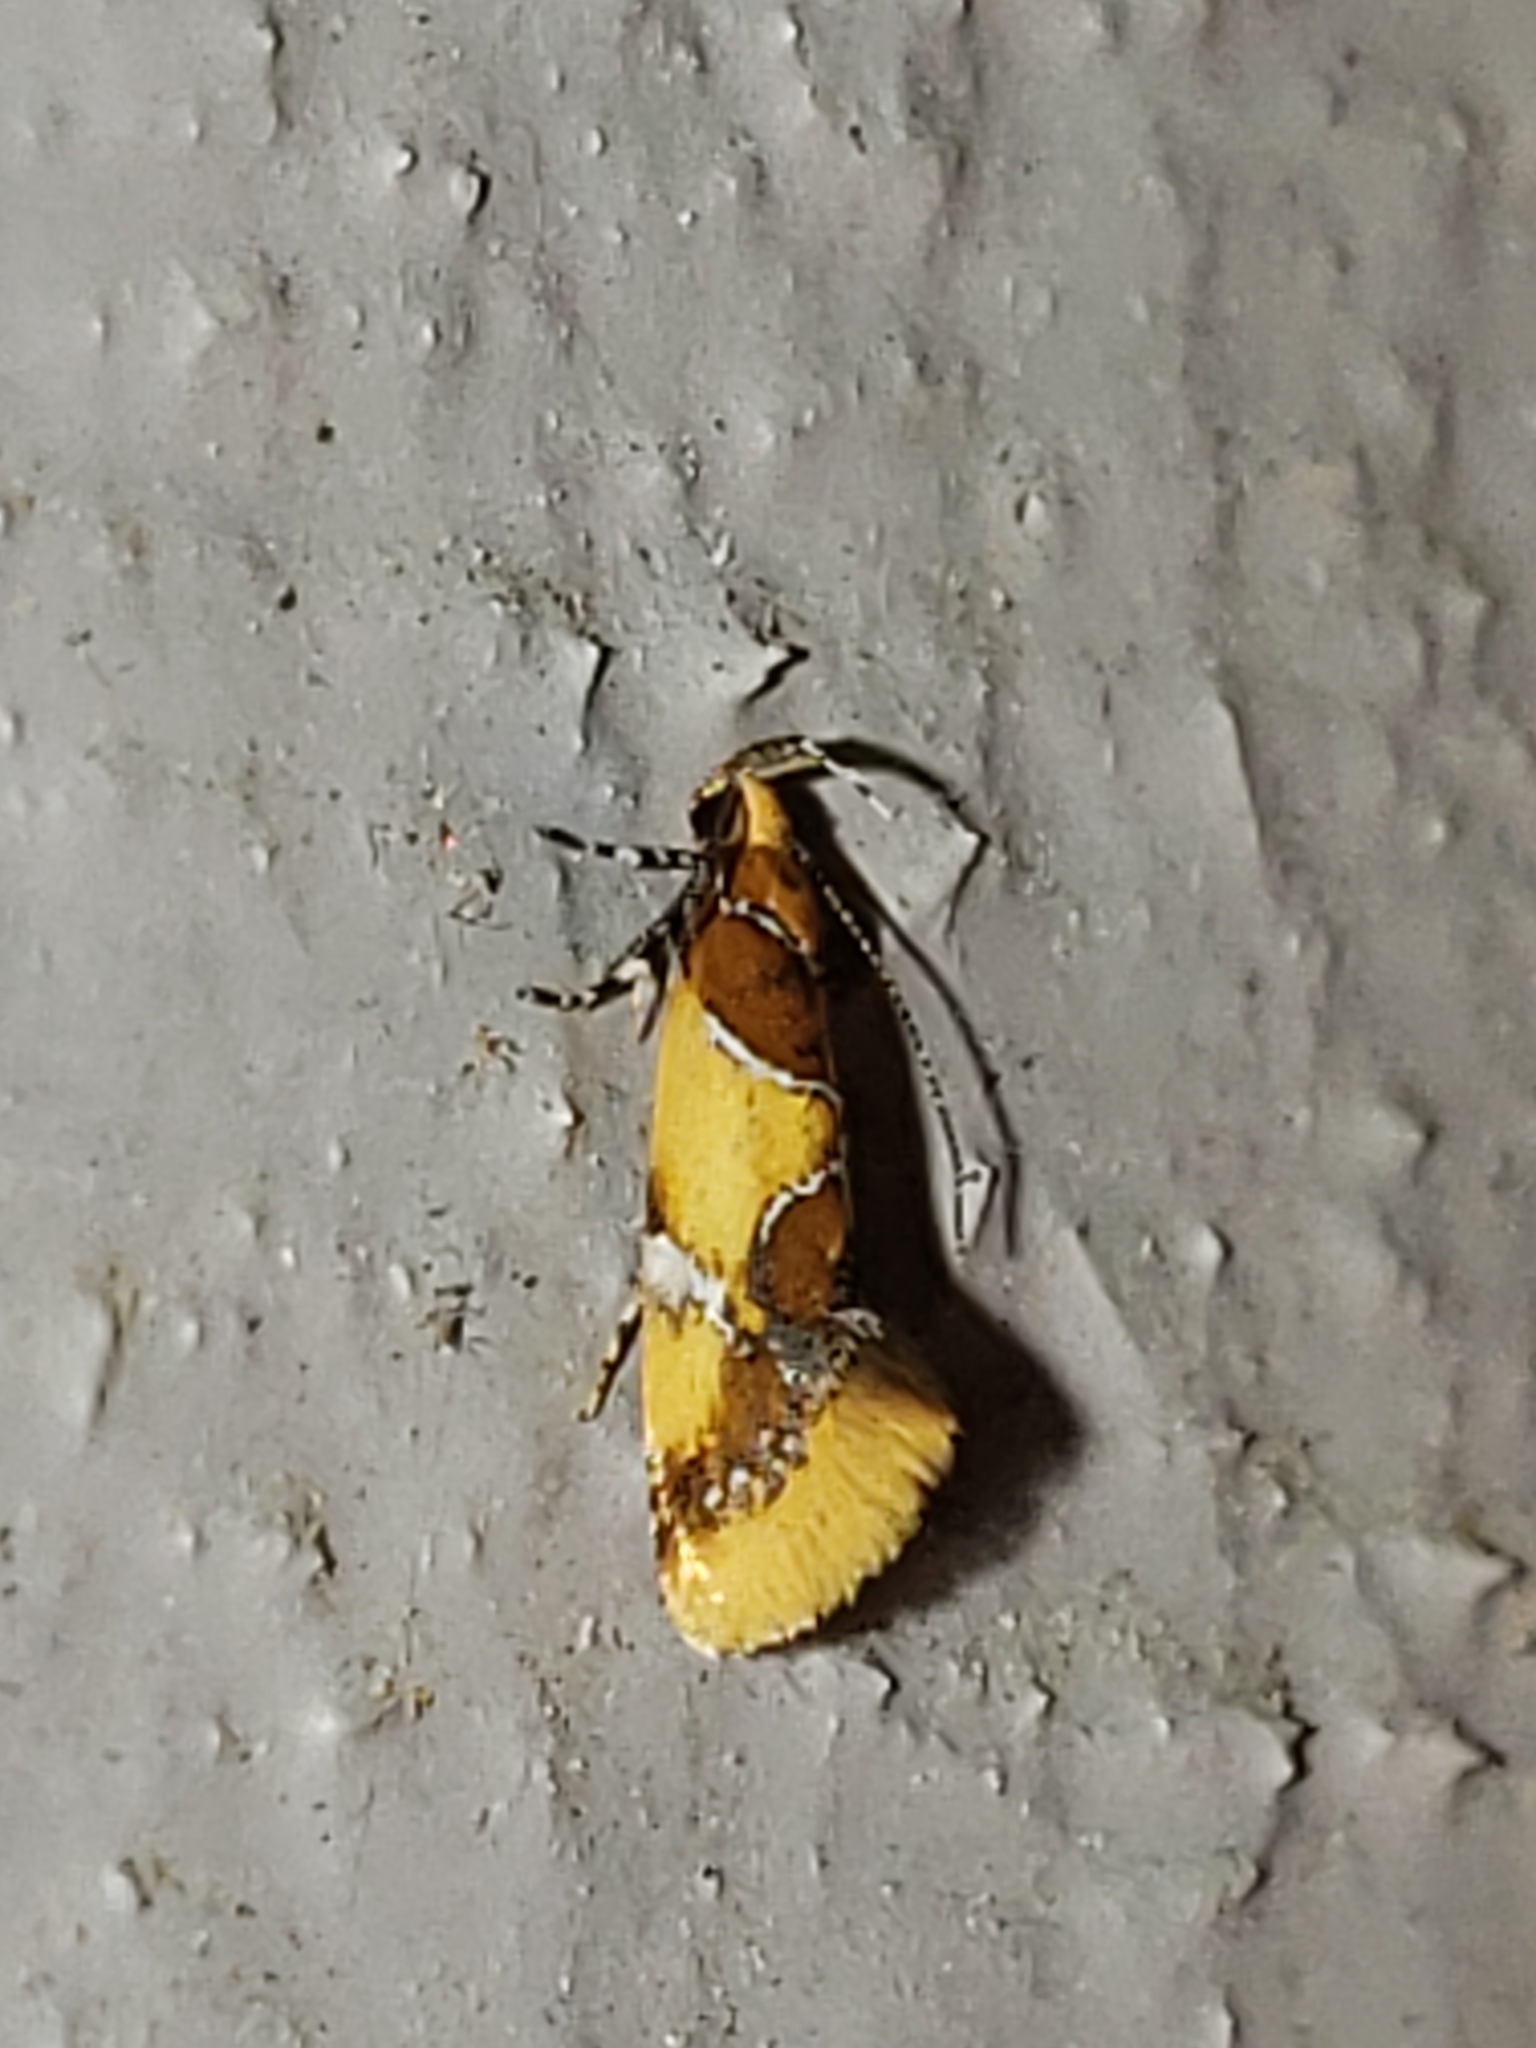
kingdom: Animalia
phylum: Arthropoda
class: Insecta
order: Lepidoptera
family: Oecophoridae
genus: Callima
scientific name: Callima argenticinctella
